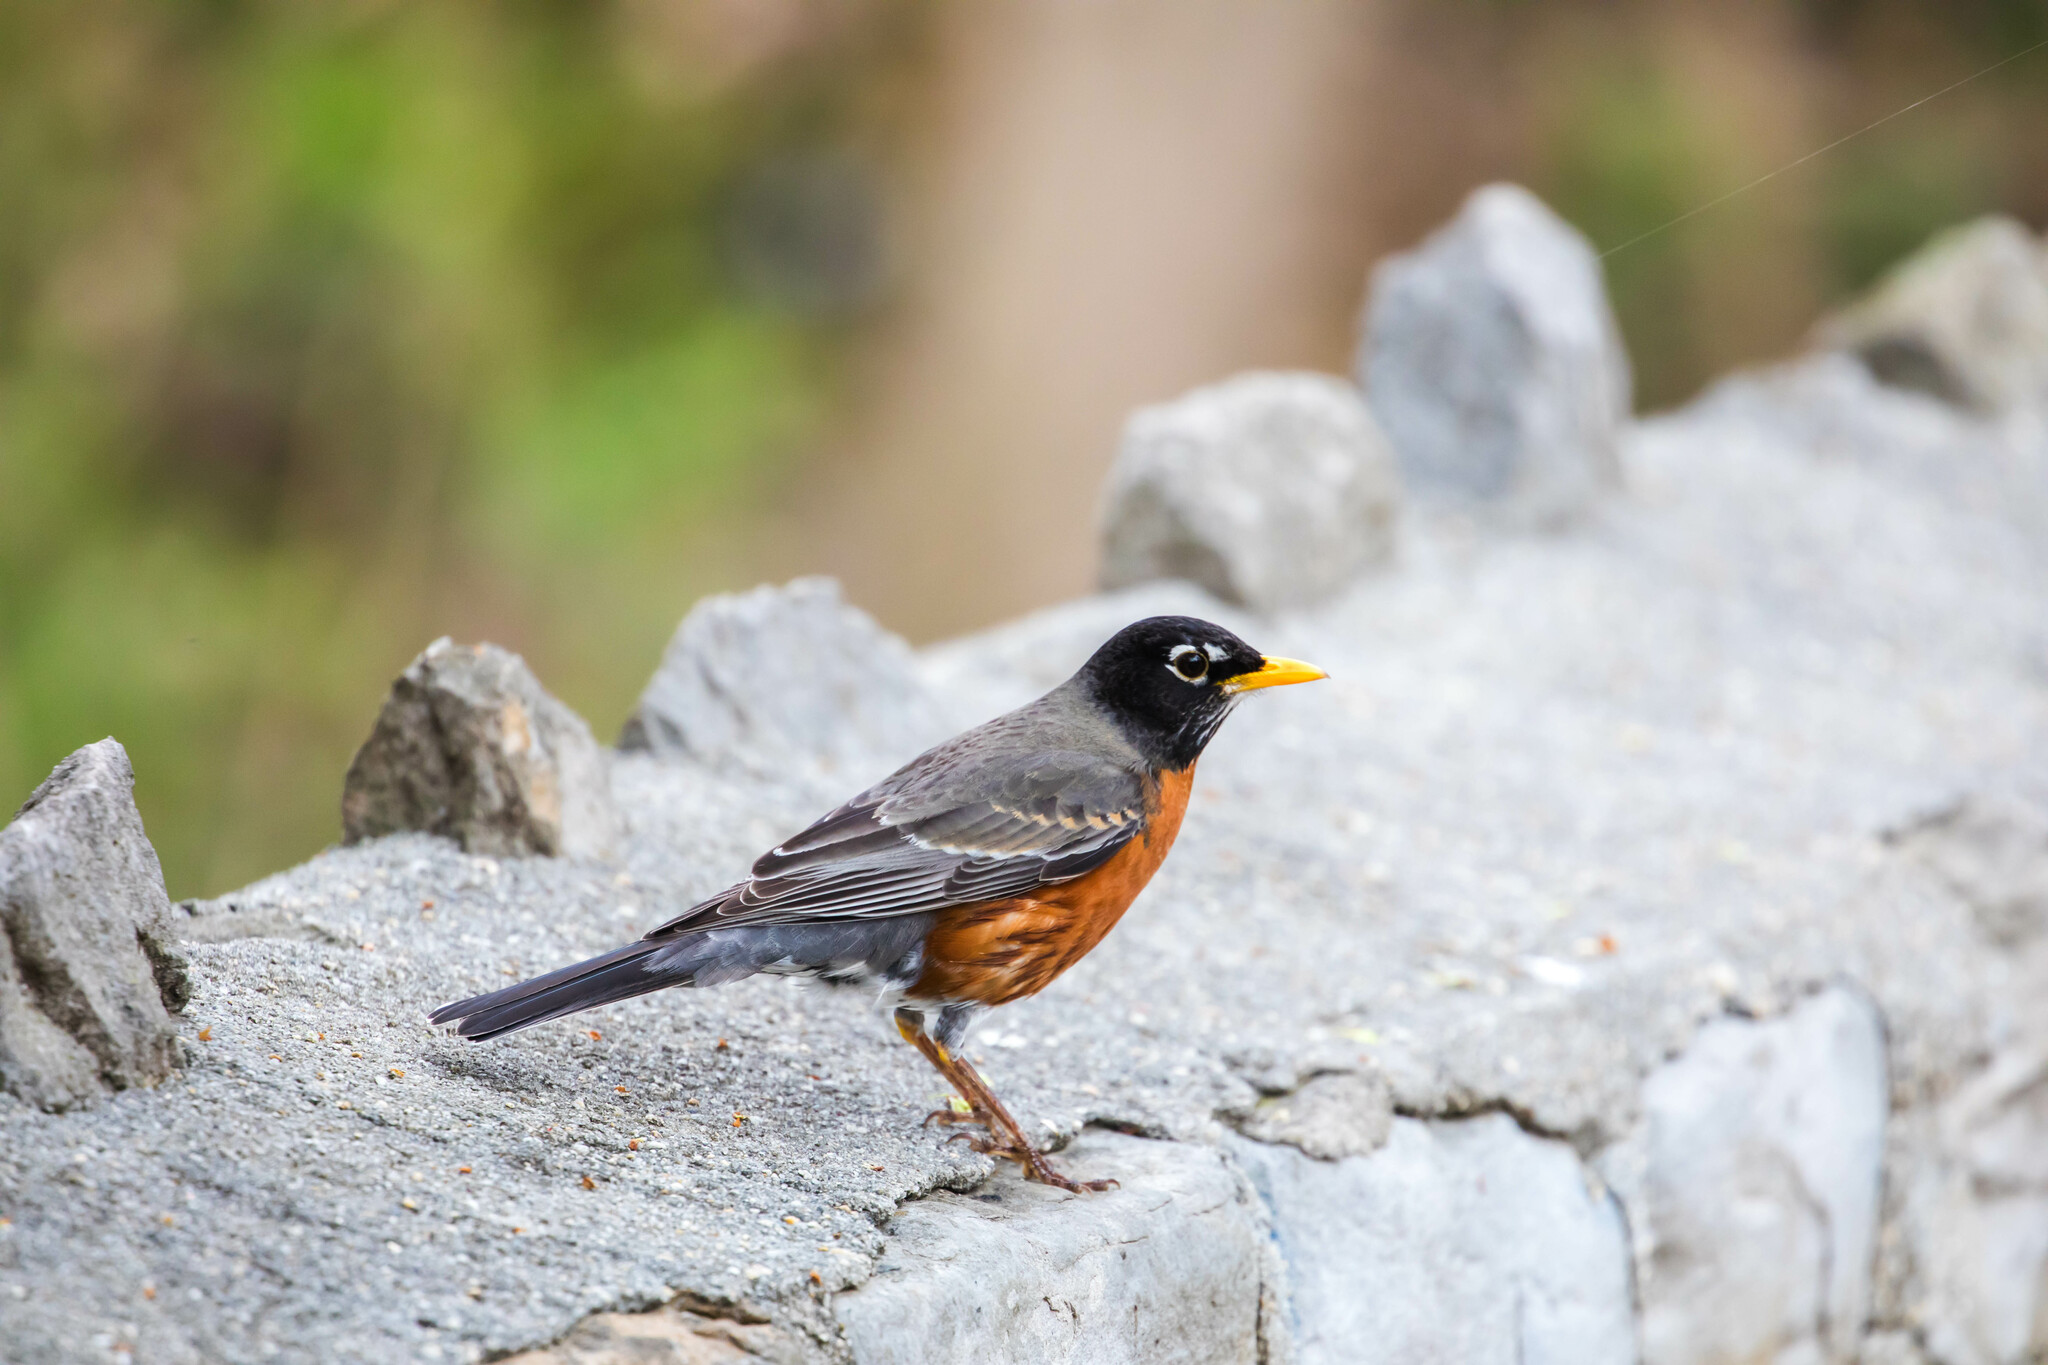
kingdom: Animalia
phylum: Chordata
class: Aves
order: Passeriformes
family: Turdidae
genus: Turdus
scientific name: Turdus migratorius
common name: American robin
